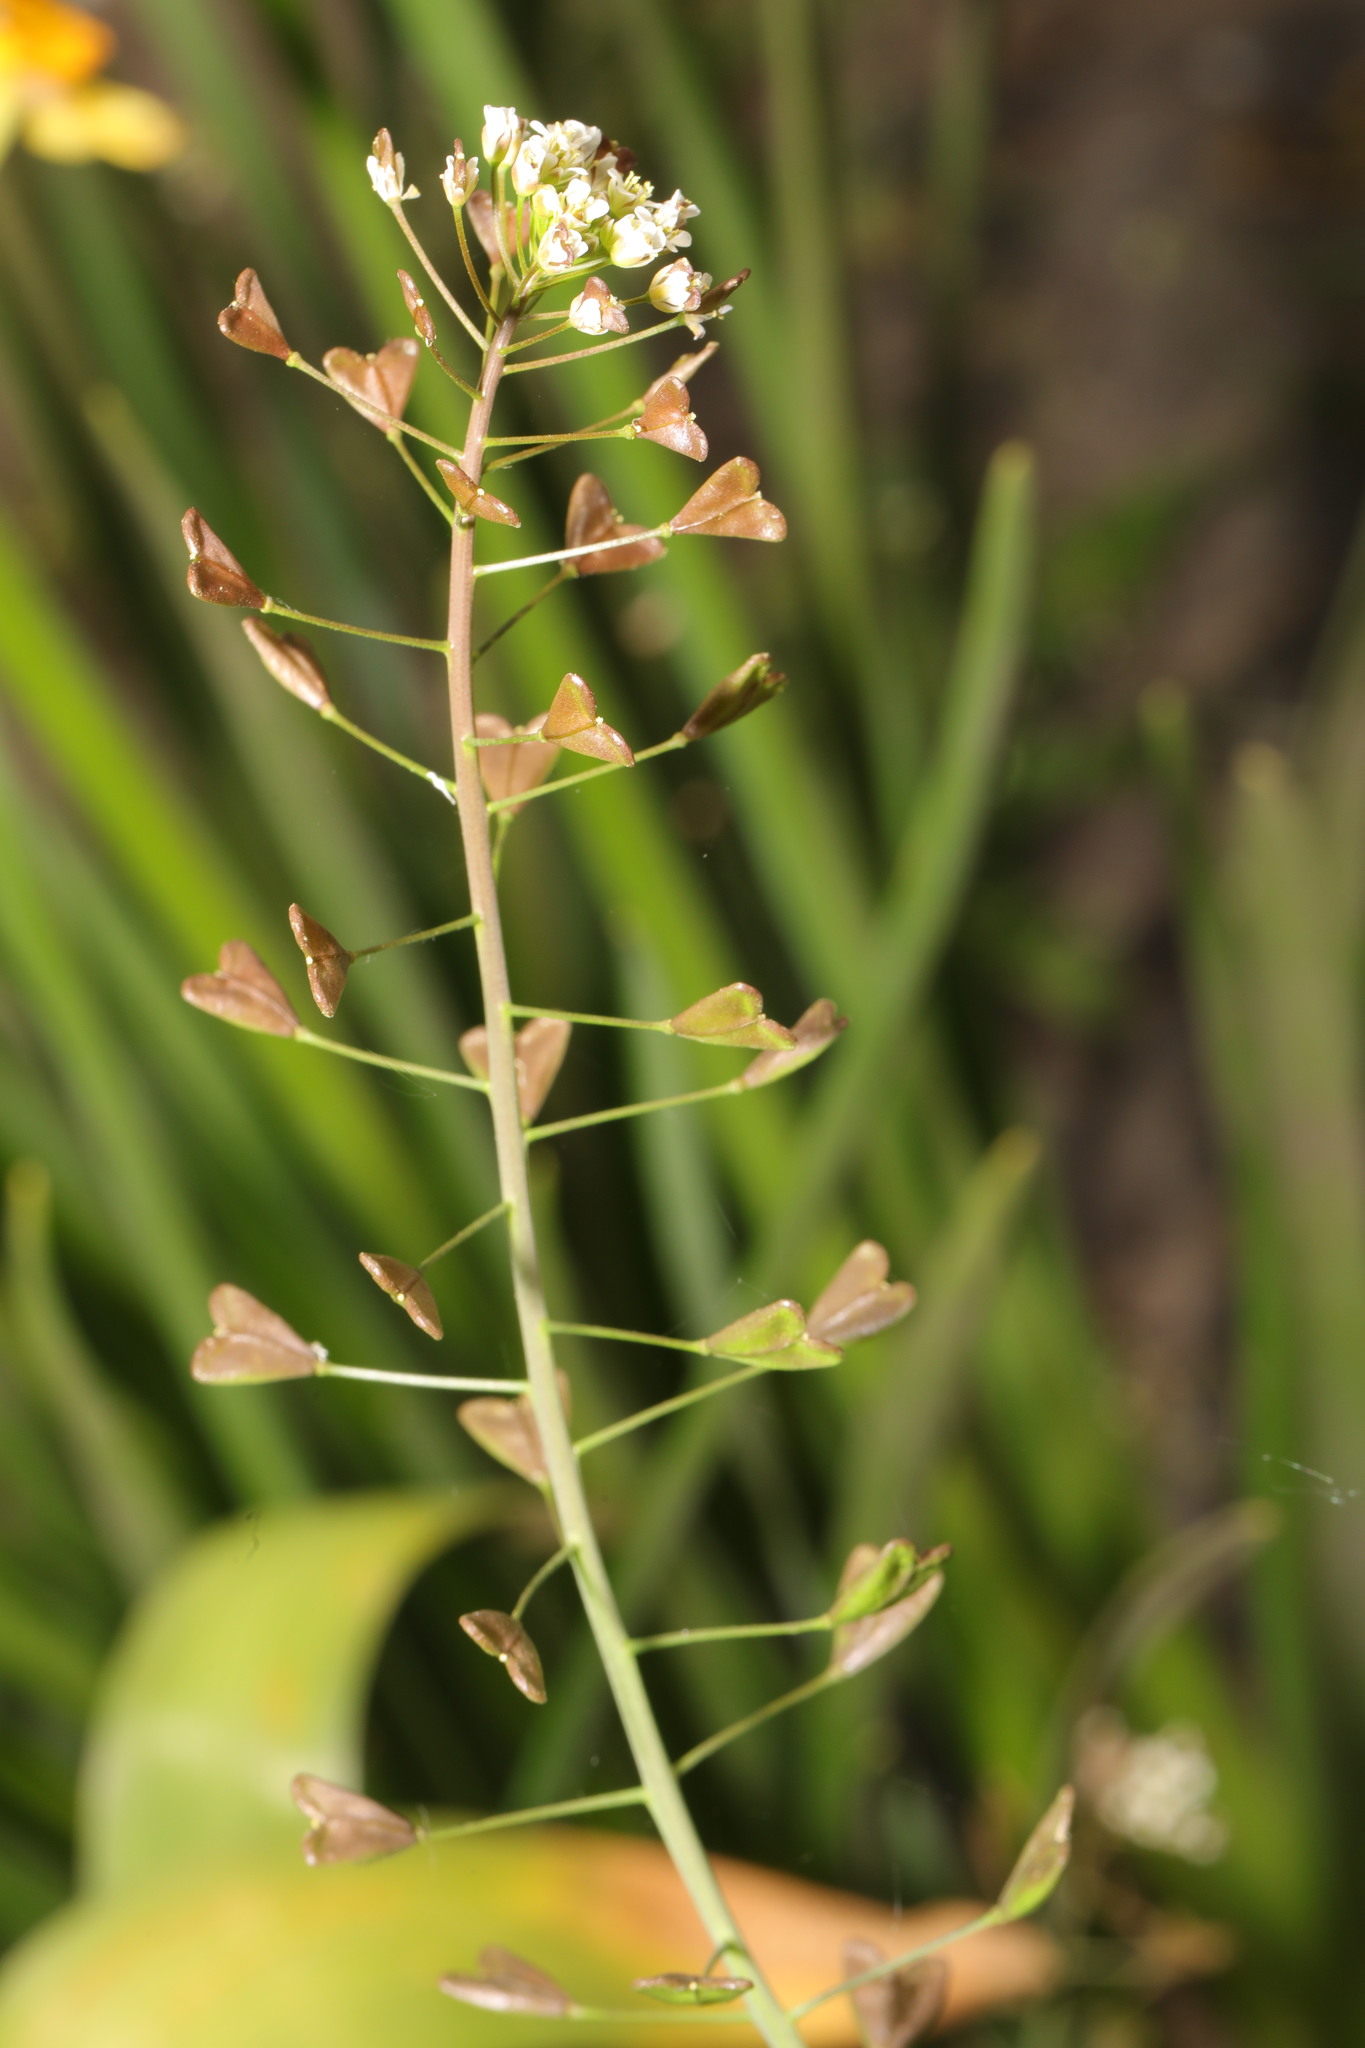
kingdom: Plantae
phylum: Tracheophyta
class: Magnoliopsida
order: Brassicales
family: Brassicaceae
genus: Capsella
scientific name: Capsella bursa-pastoris
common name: Shepherd's purse
